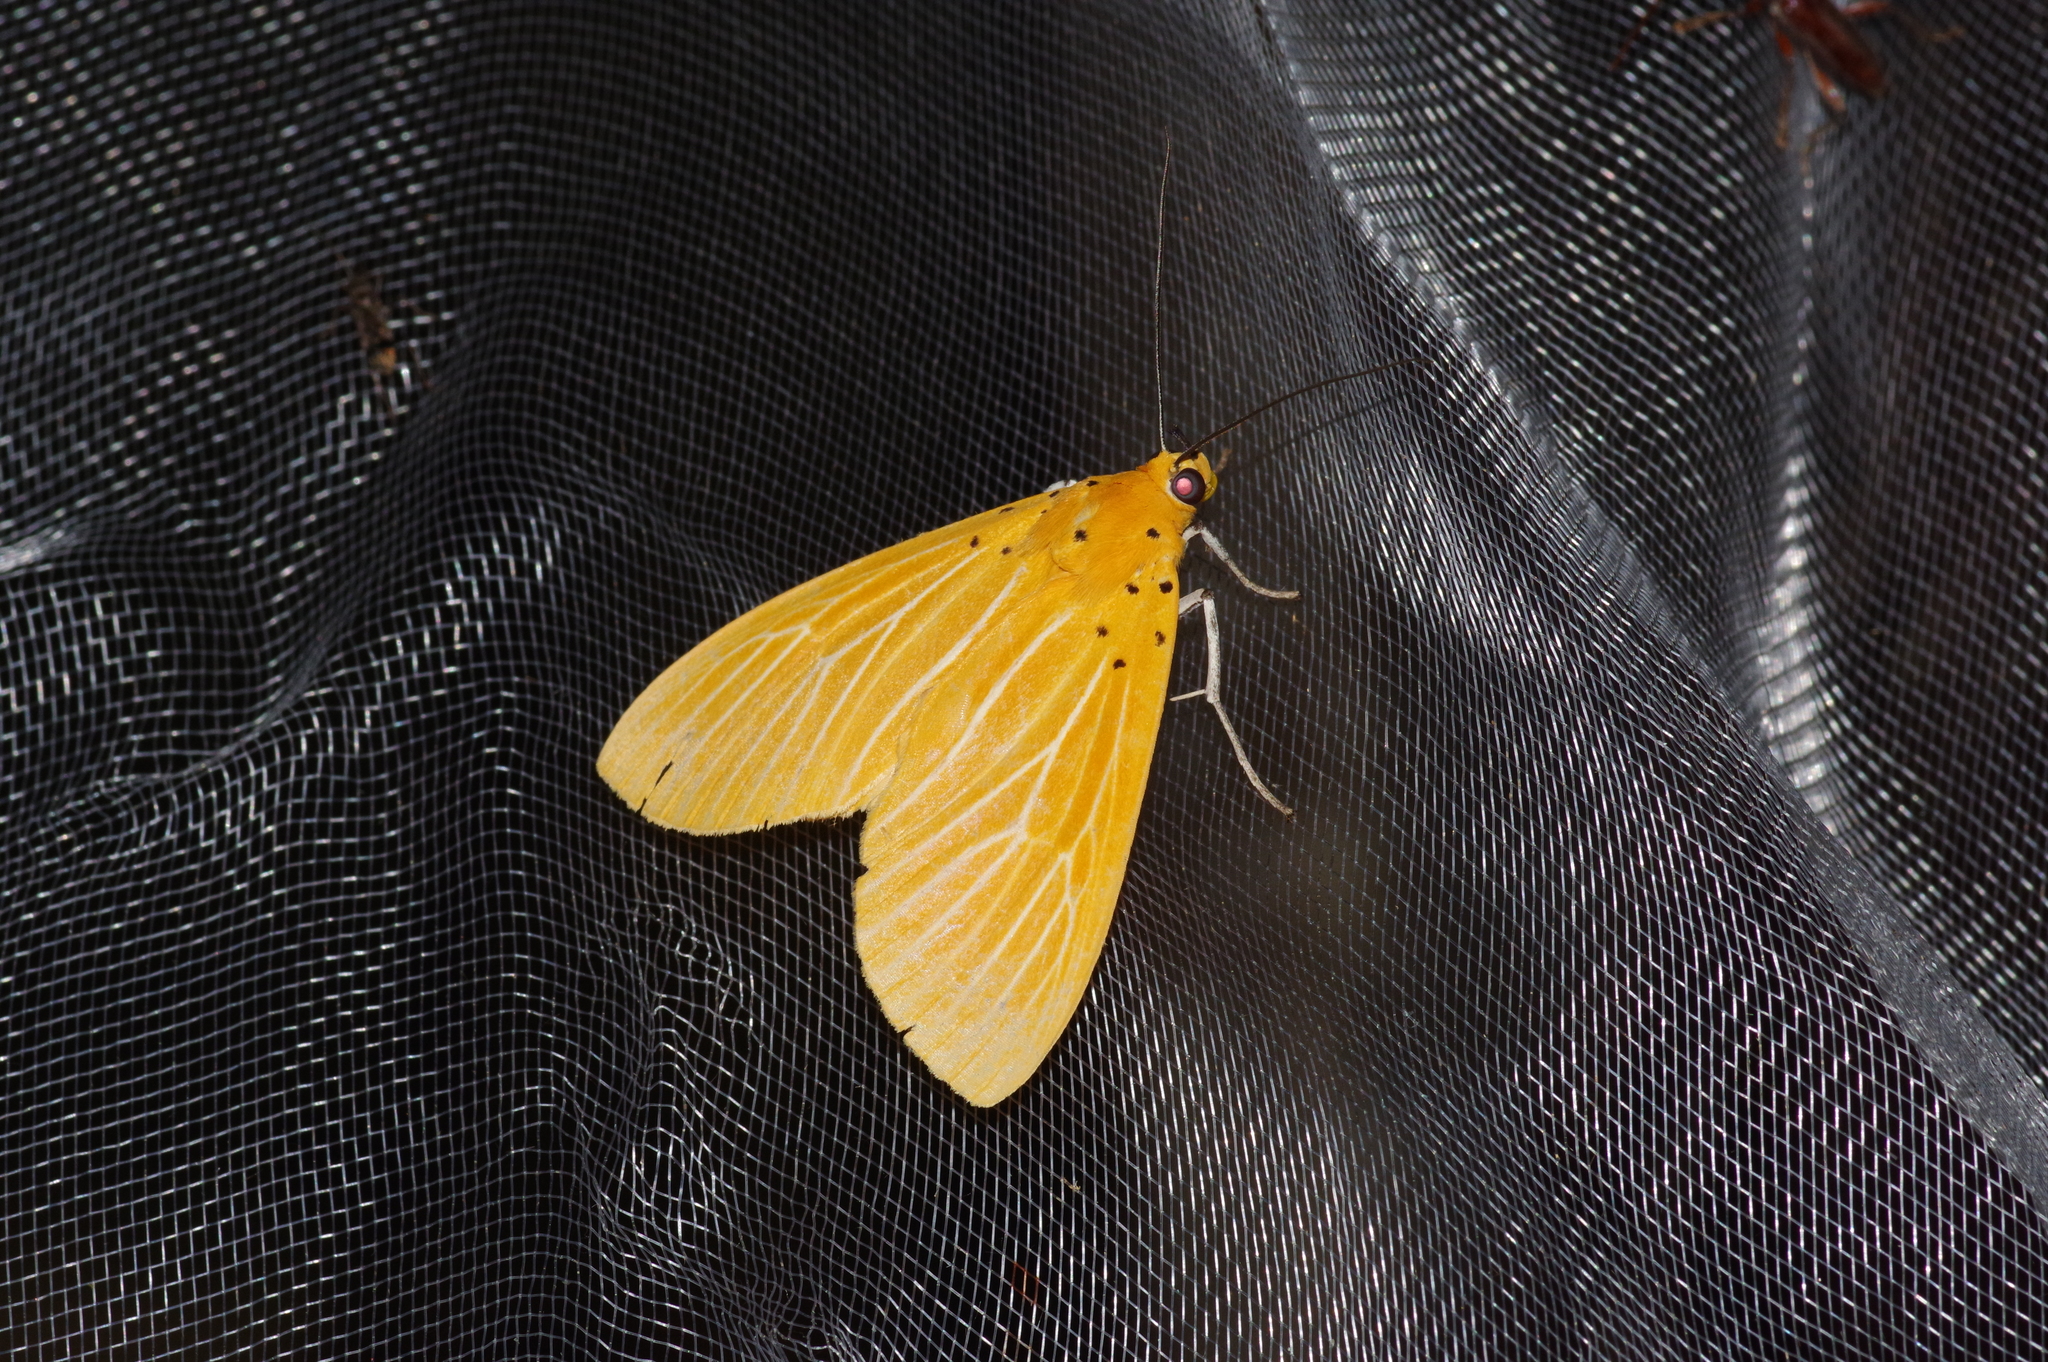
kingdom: Animalia
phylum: Arthropoda
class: Insecta
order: Lepidoptera
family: Erebidae
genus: Asota
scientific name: Asota egens
